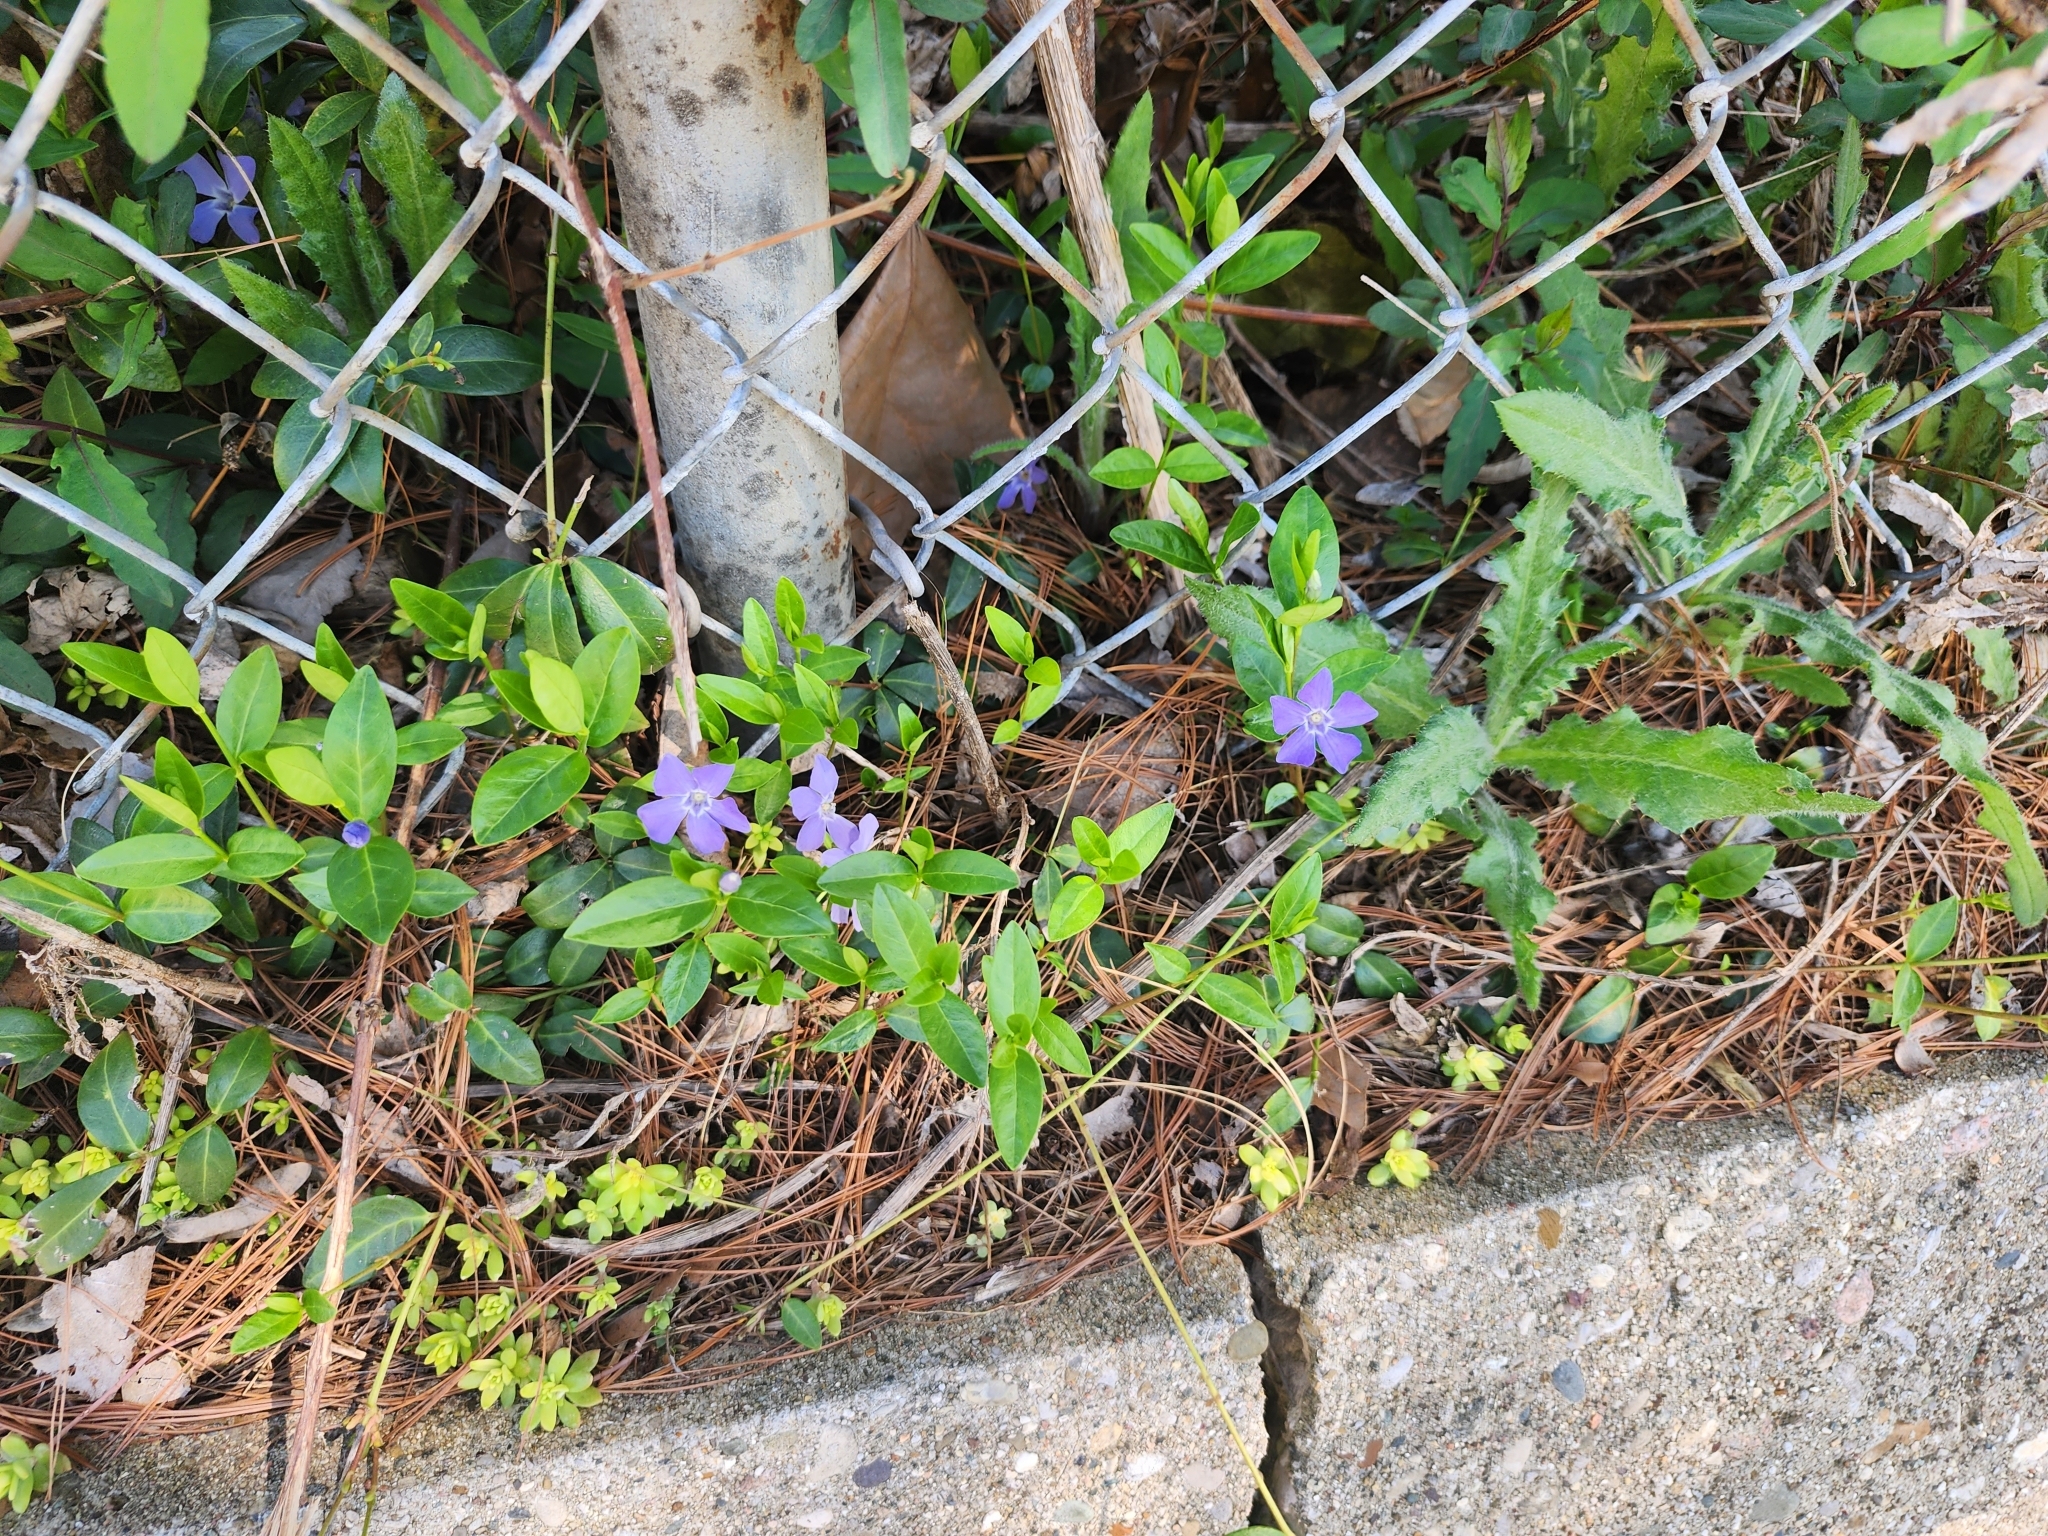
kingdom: Plantae
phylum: Tracheophyta
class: Magnoliopsida
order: Gentianales
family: Apocynaceae
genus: Vinca
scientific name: Vinca minor
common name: Lesser periwinkle
